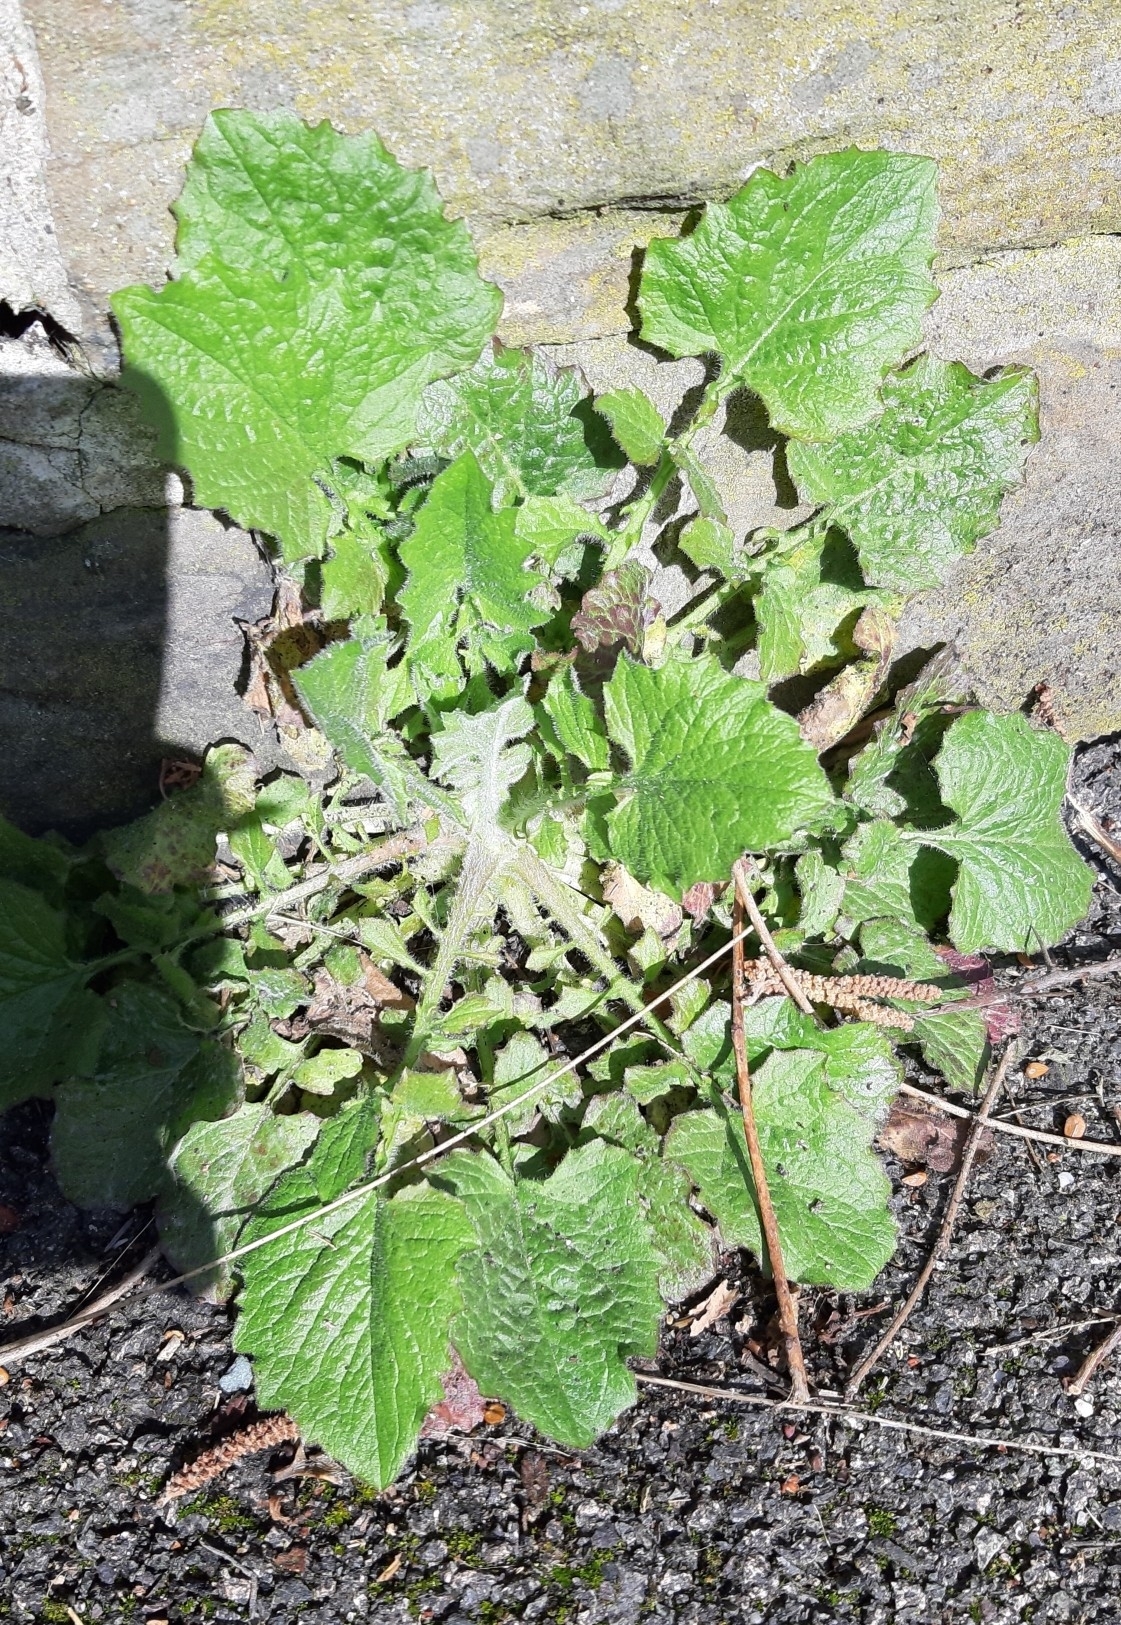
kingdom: Plantae
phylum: Tracheophyta
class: Magnoliopsida
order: Asterales
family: Asteraceae
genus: Lapsana
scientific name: Lapsana communis
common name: Nipplewort
